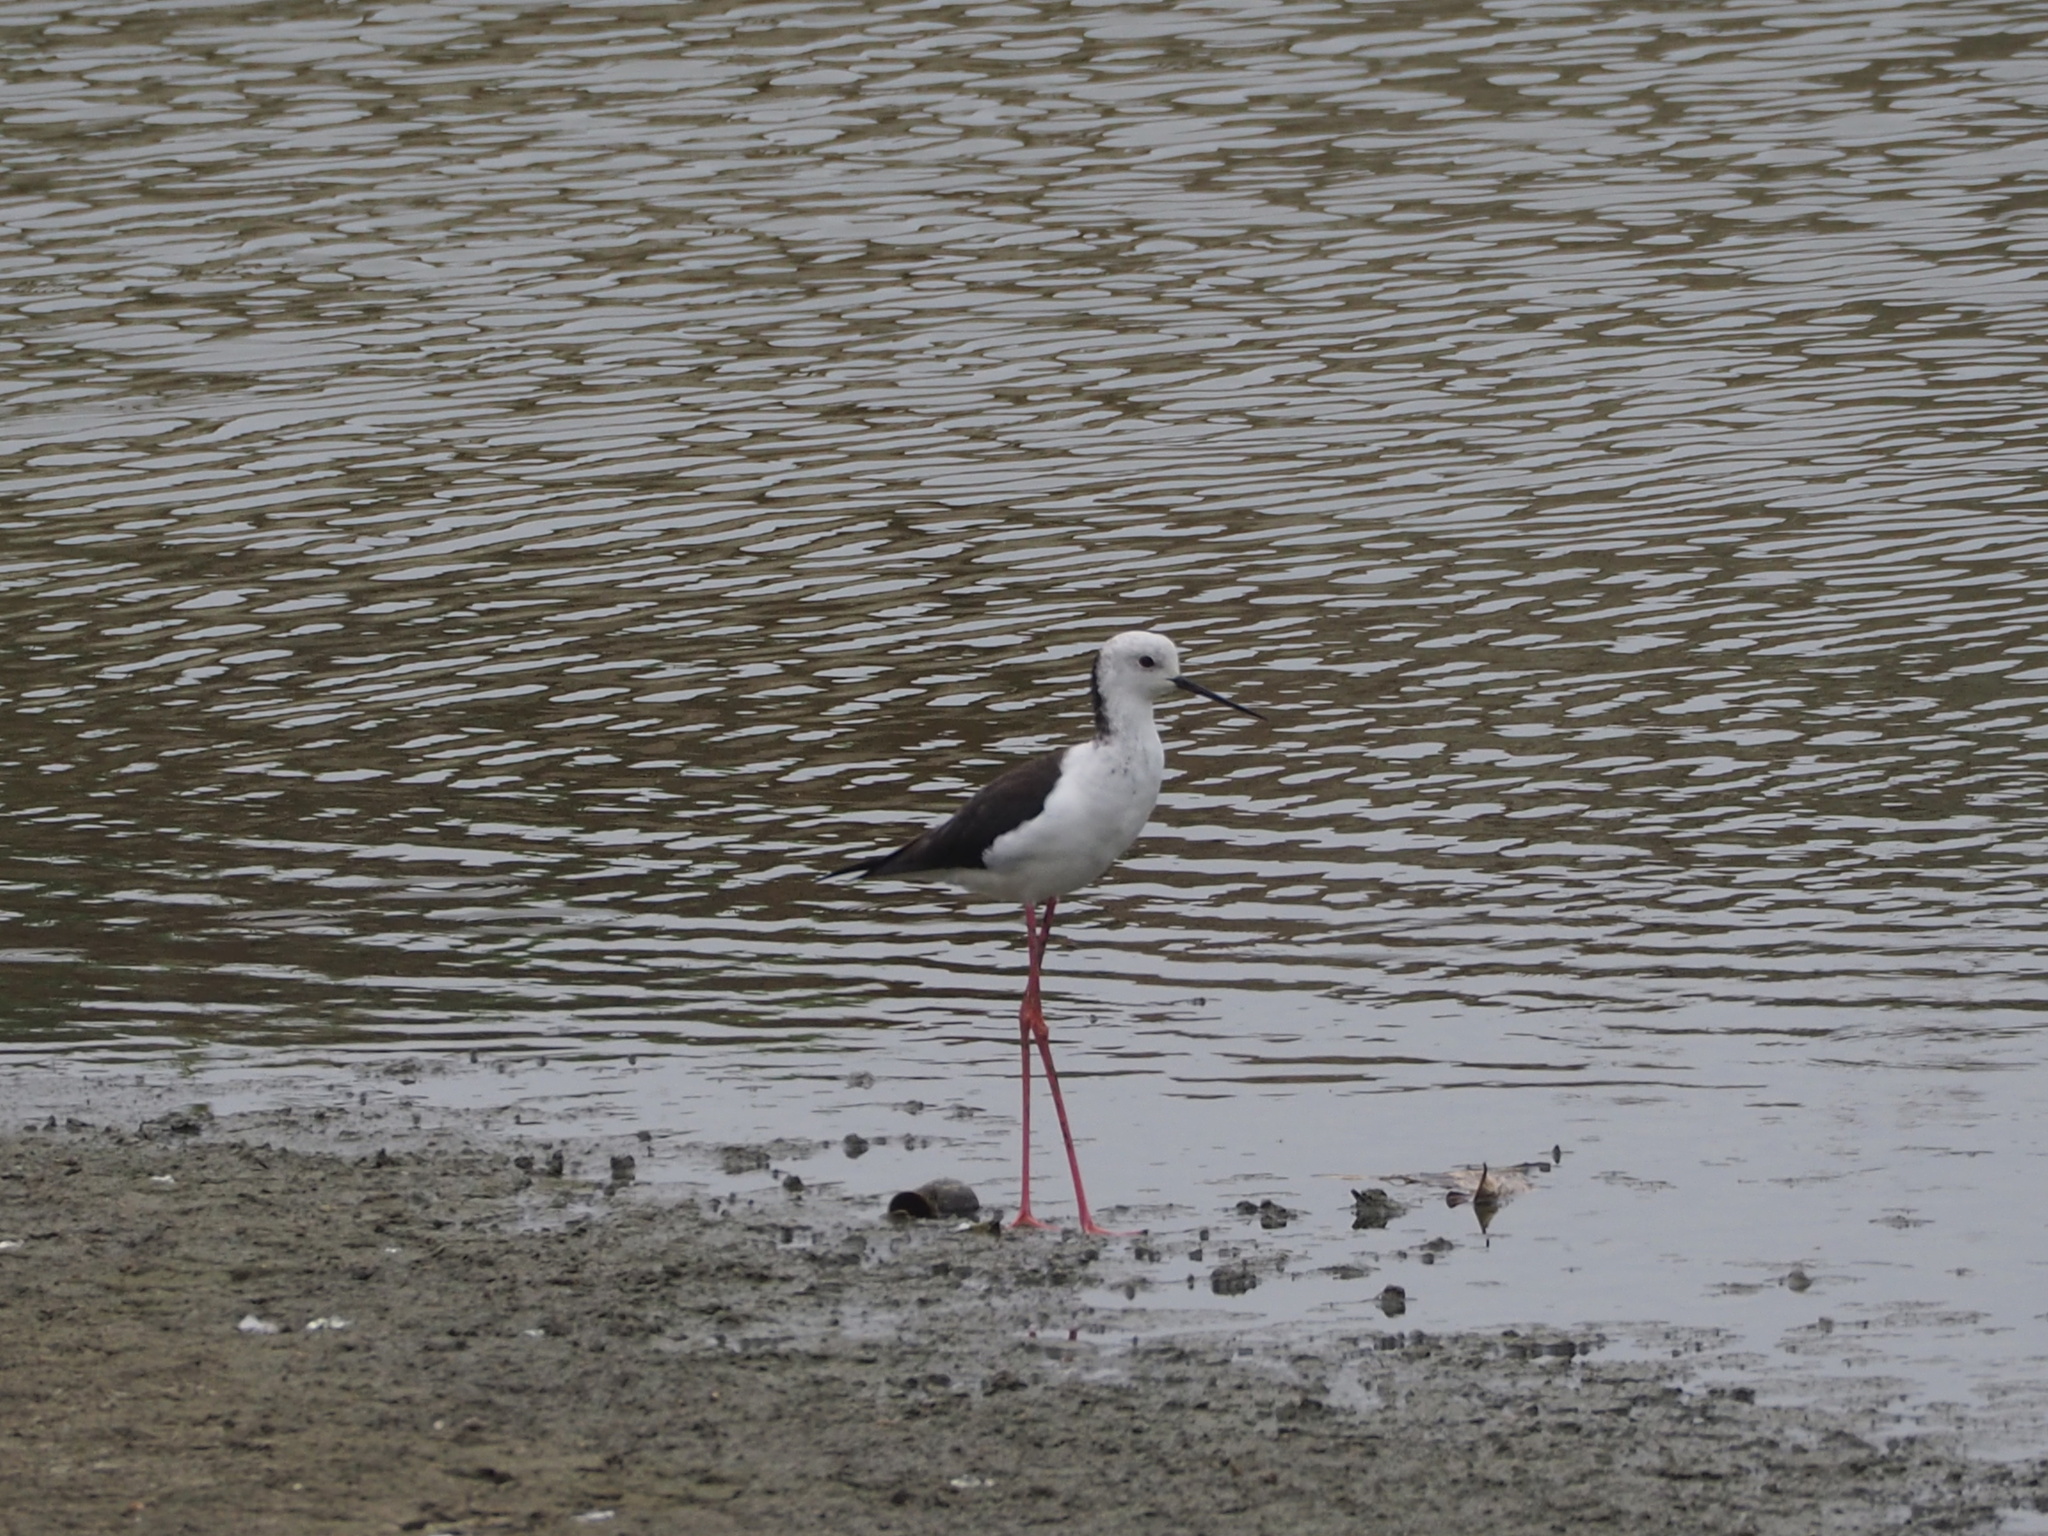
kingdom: Animalia
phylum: Chordata
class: Aves
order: Charadriiformes
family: Recurvirostridae
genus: Himantopus
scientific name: Himantopus himantopus
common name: Black-winged stilt
